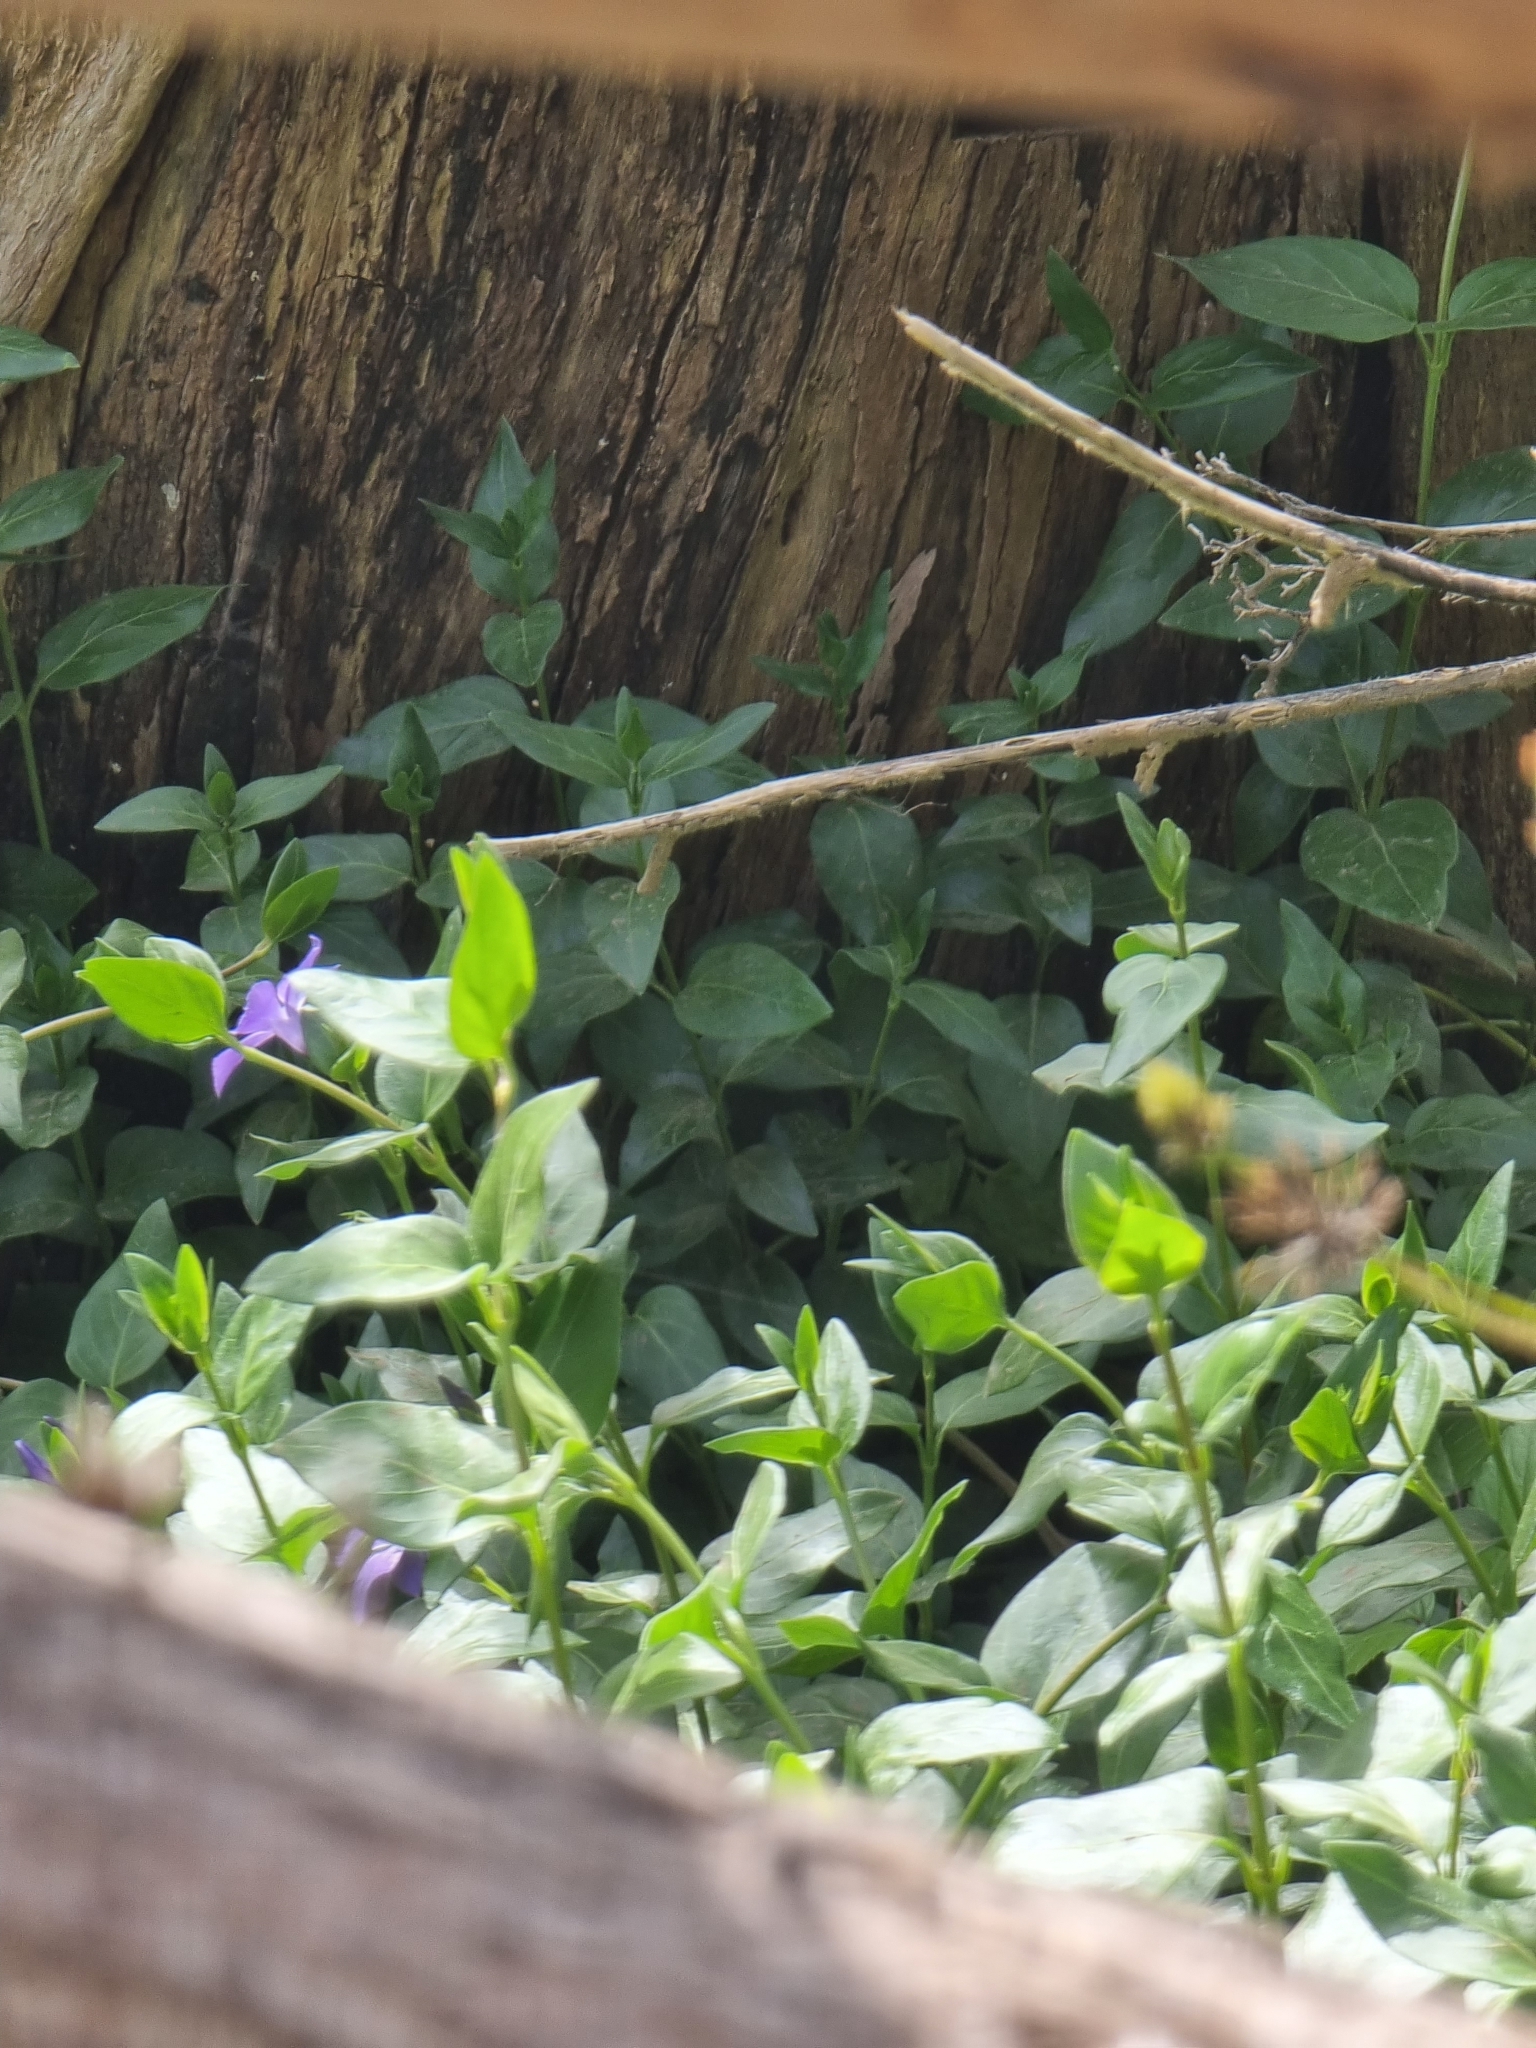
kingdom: Plantae
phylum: Tracheophyta
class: Magnoliopsida
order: Gentianales
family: Apocynaceae
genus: Vinca
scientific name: Vinca major
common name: Greater periwinkle
